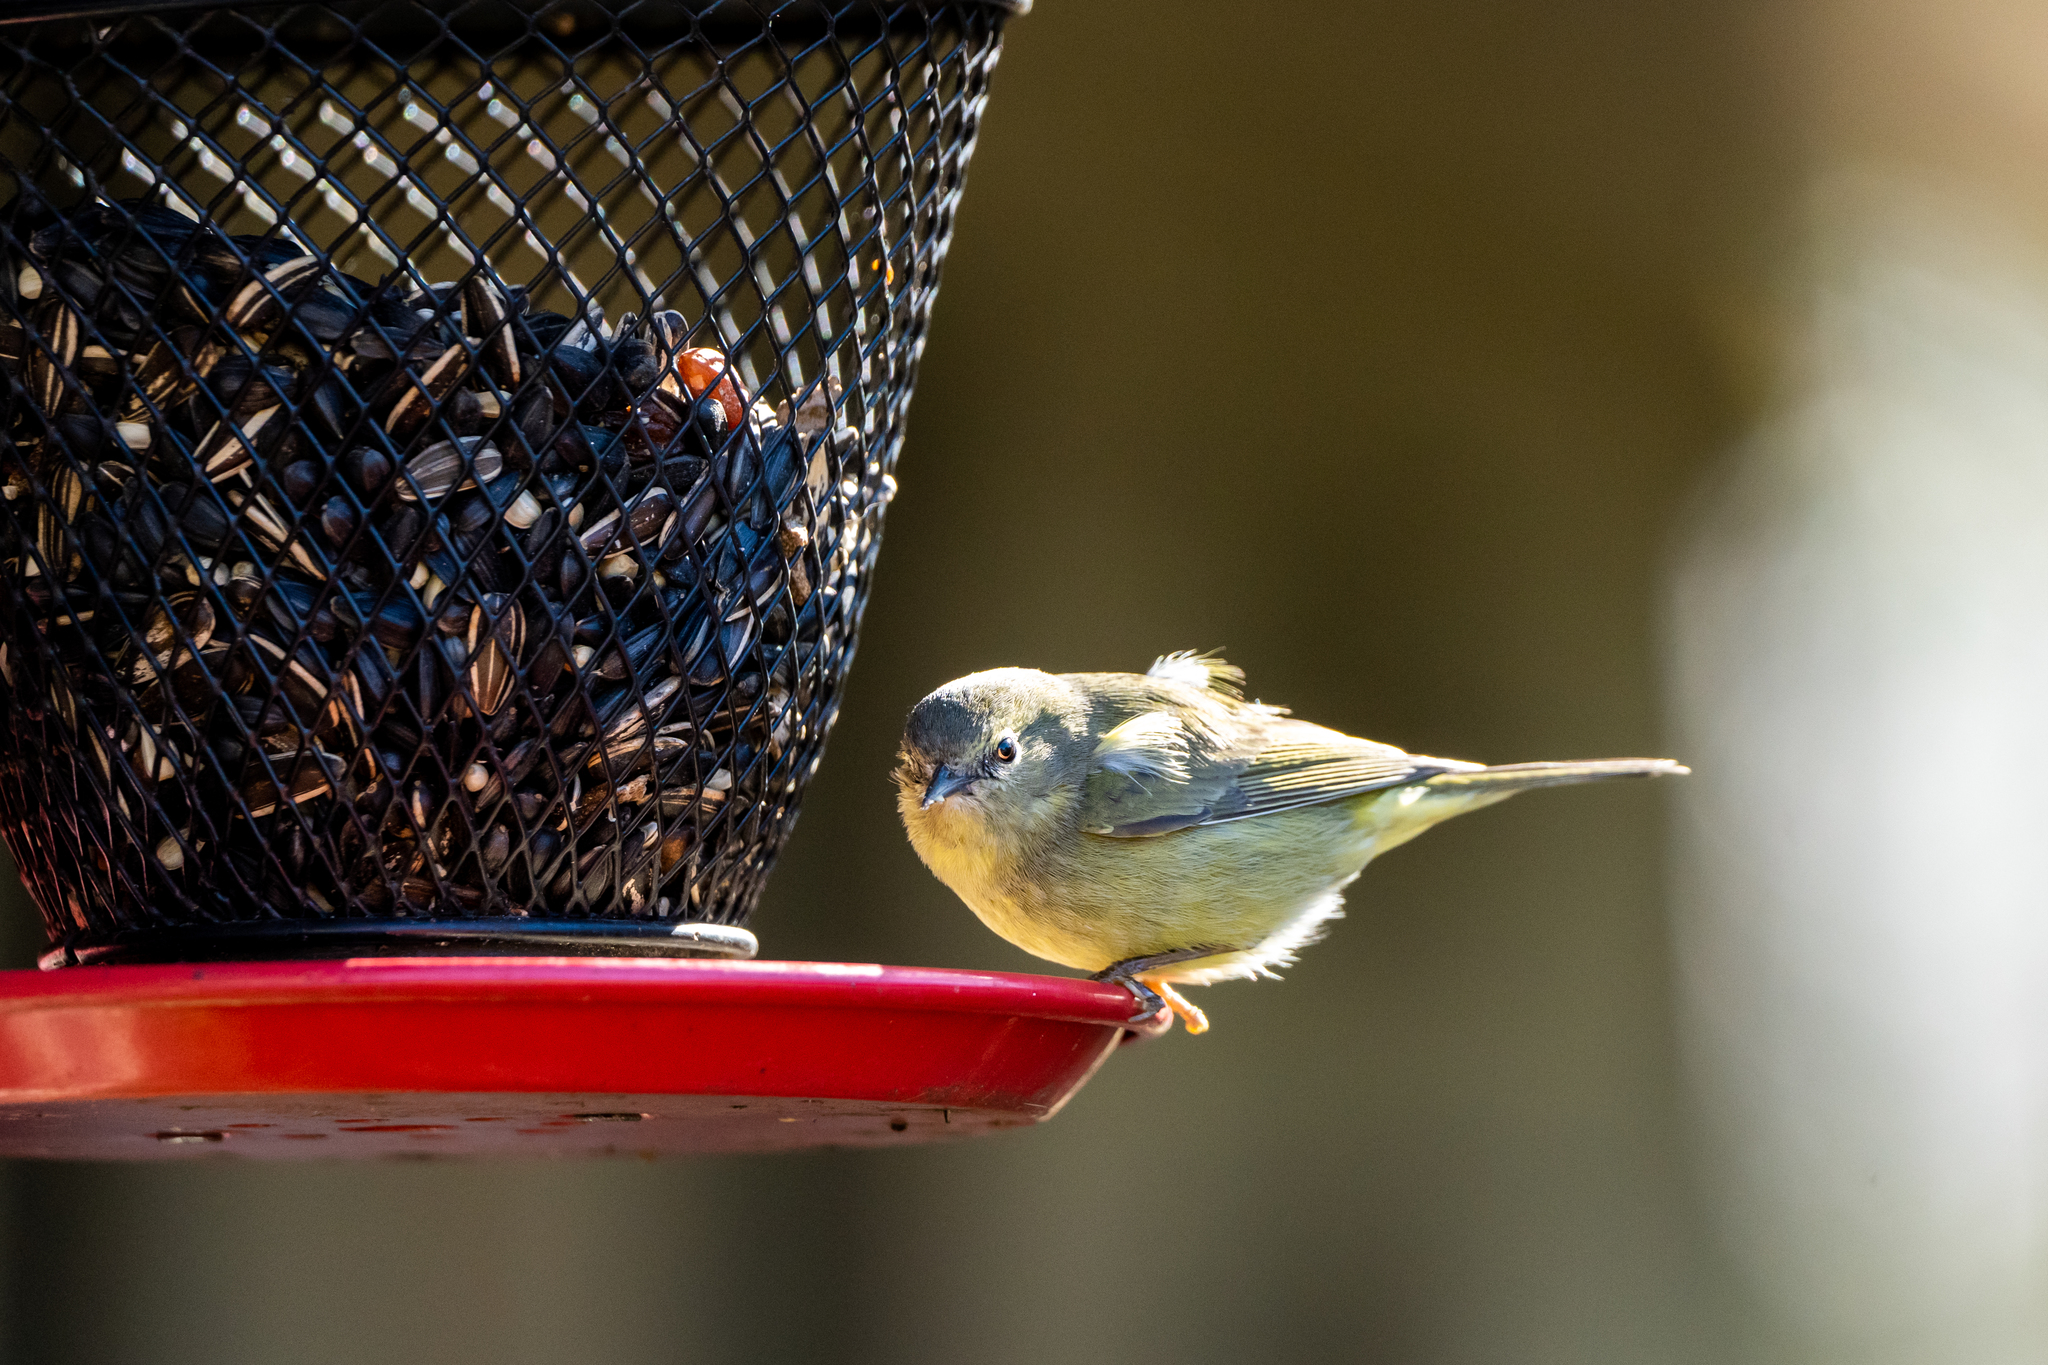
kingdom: Animalia
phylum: Chordata
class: Aves
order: Passeriformes
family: Parulidae
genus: Leiothlypis
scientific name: Leiothlypis celata
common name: Orange-crowned warbler
